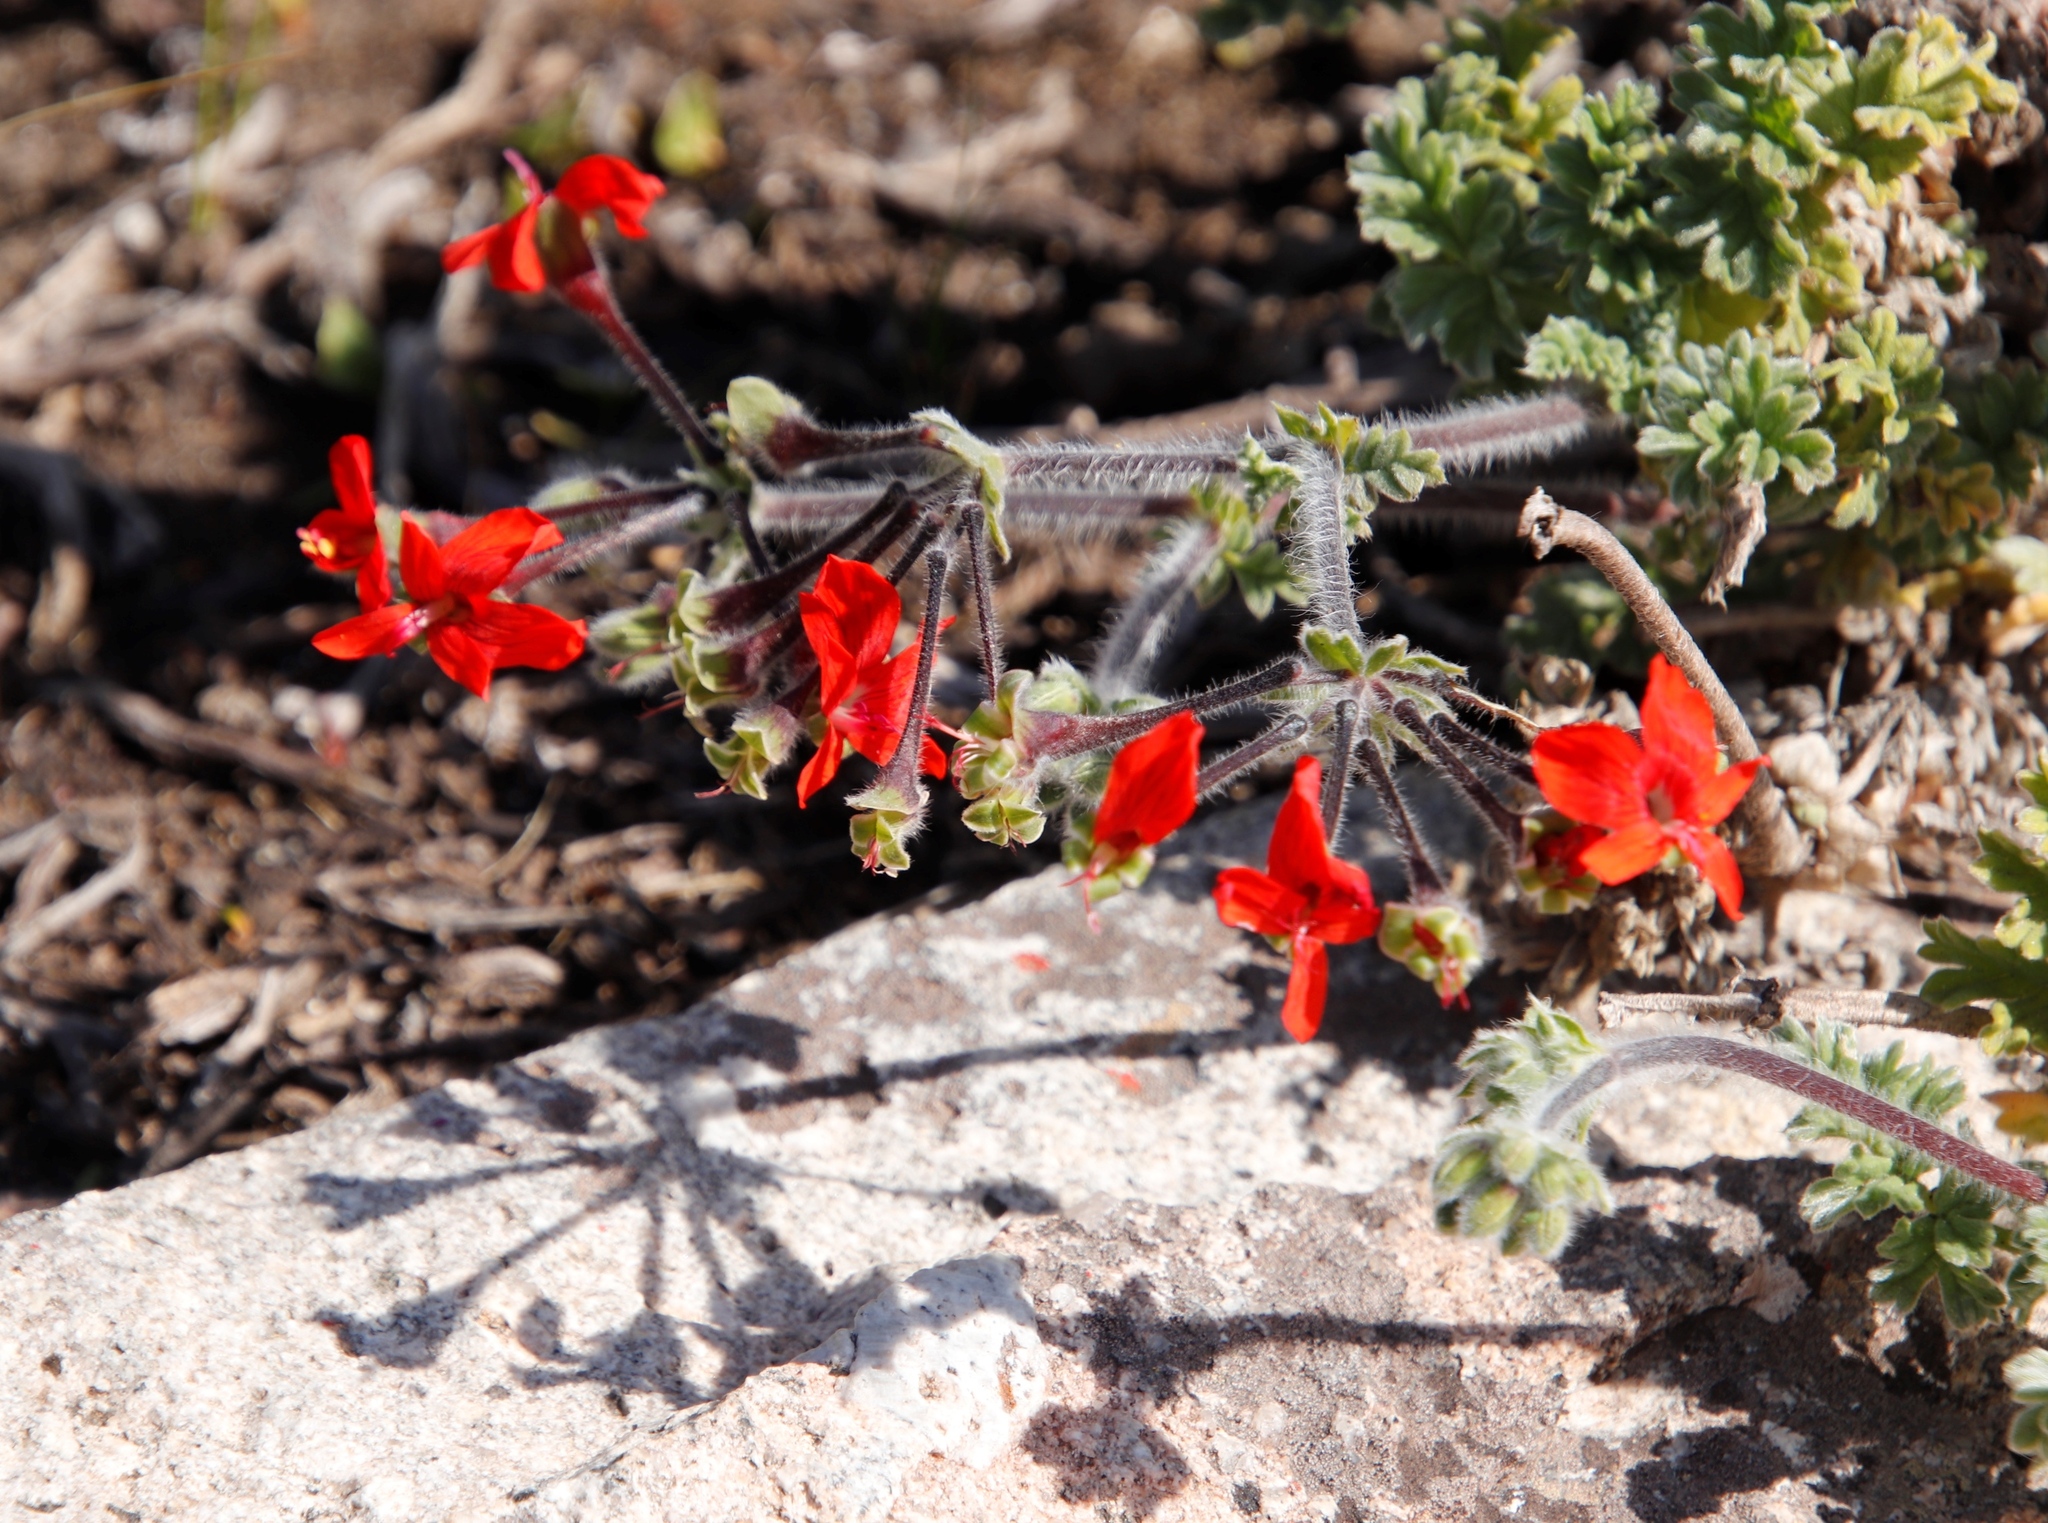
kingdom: Plantae
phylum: Tracheophyta
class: Magnoliopsida
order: Geraniales
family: Geraniaceae
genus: Pelargonium
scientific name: Pelargonium fulgidum
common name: Celandine-leaf pelargonium
